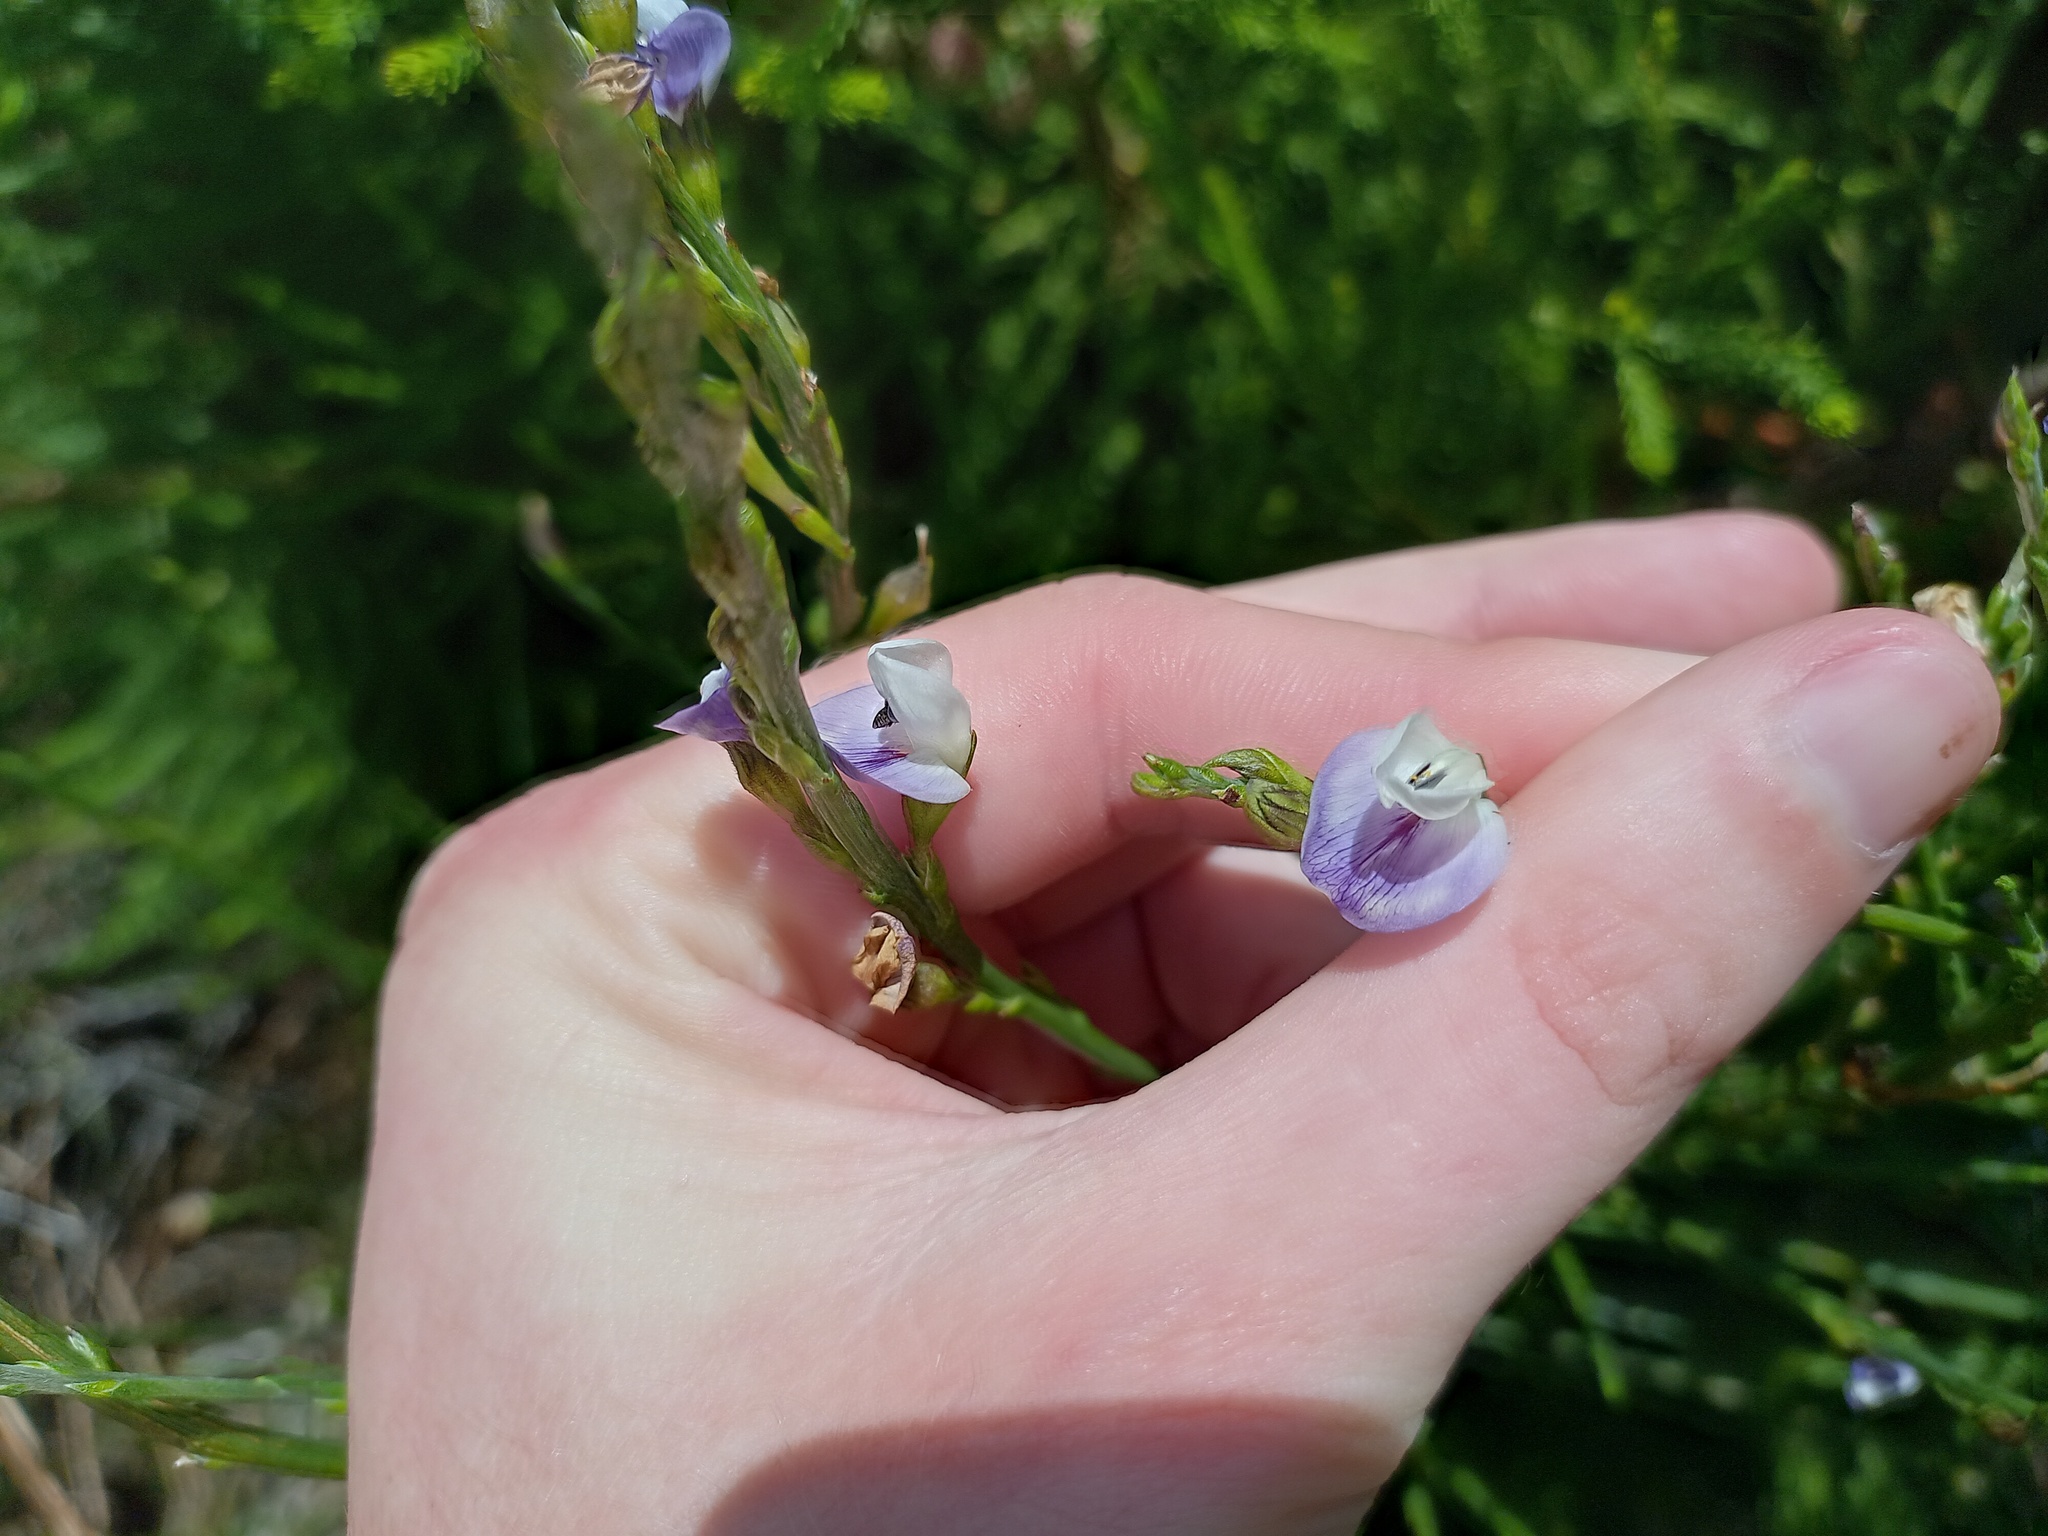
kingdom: Plantae
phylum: Tracheophyta
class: Magnoliopsida
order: Fabales
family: Fabaceae
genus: Psoralea
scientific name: Psoralea aphylla
